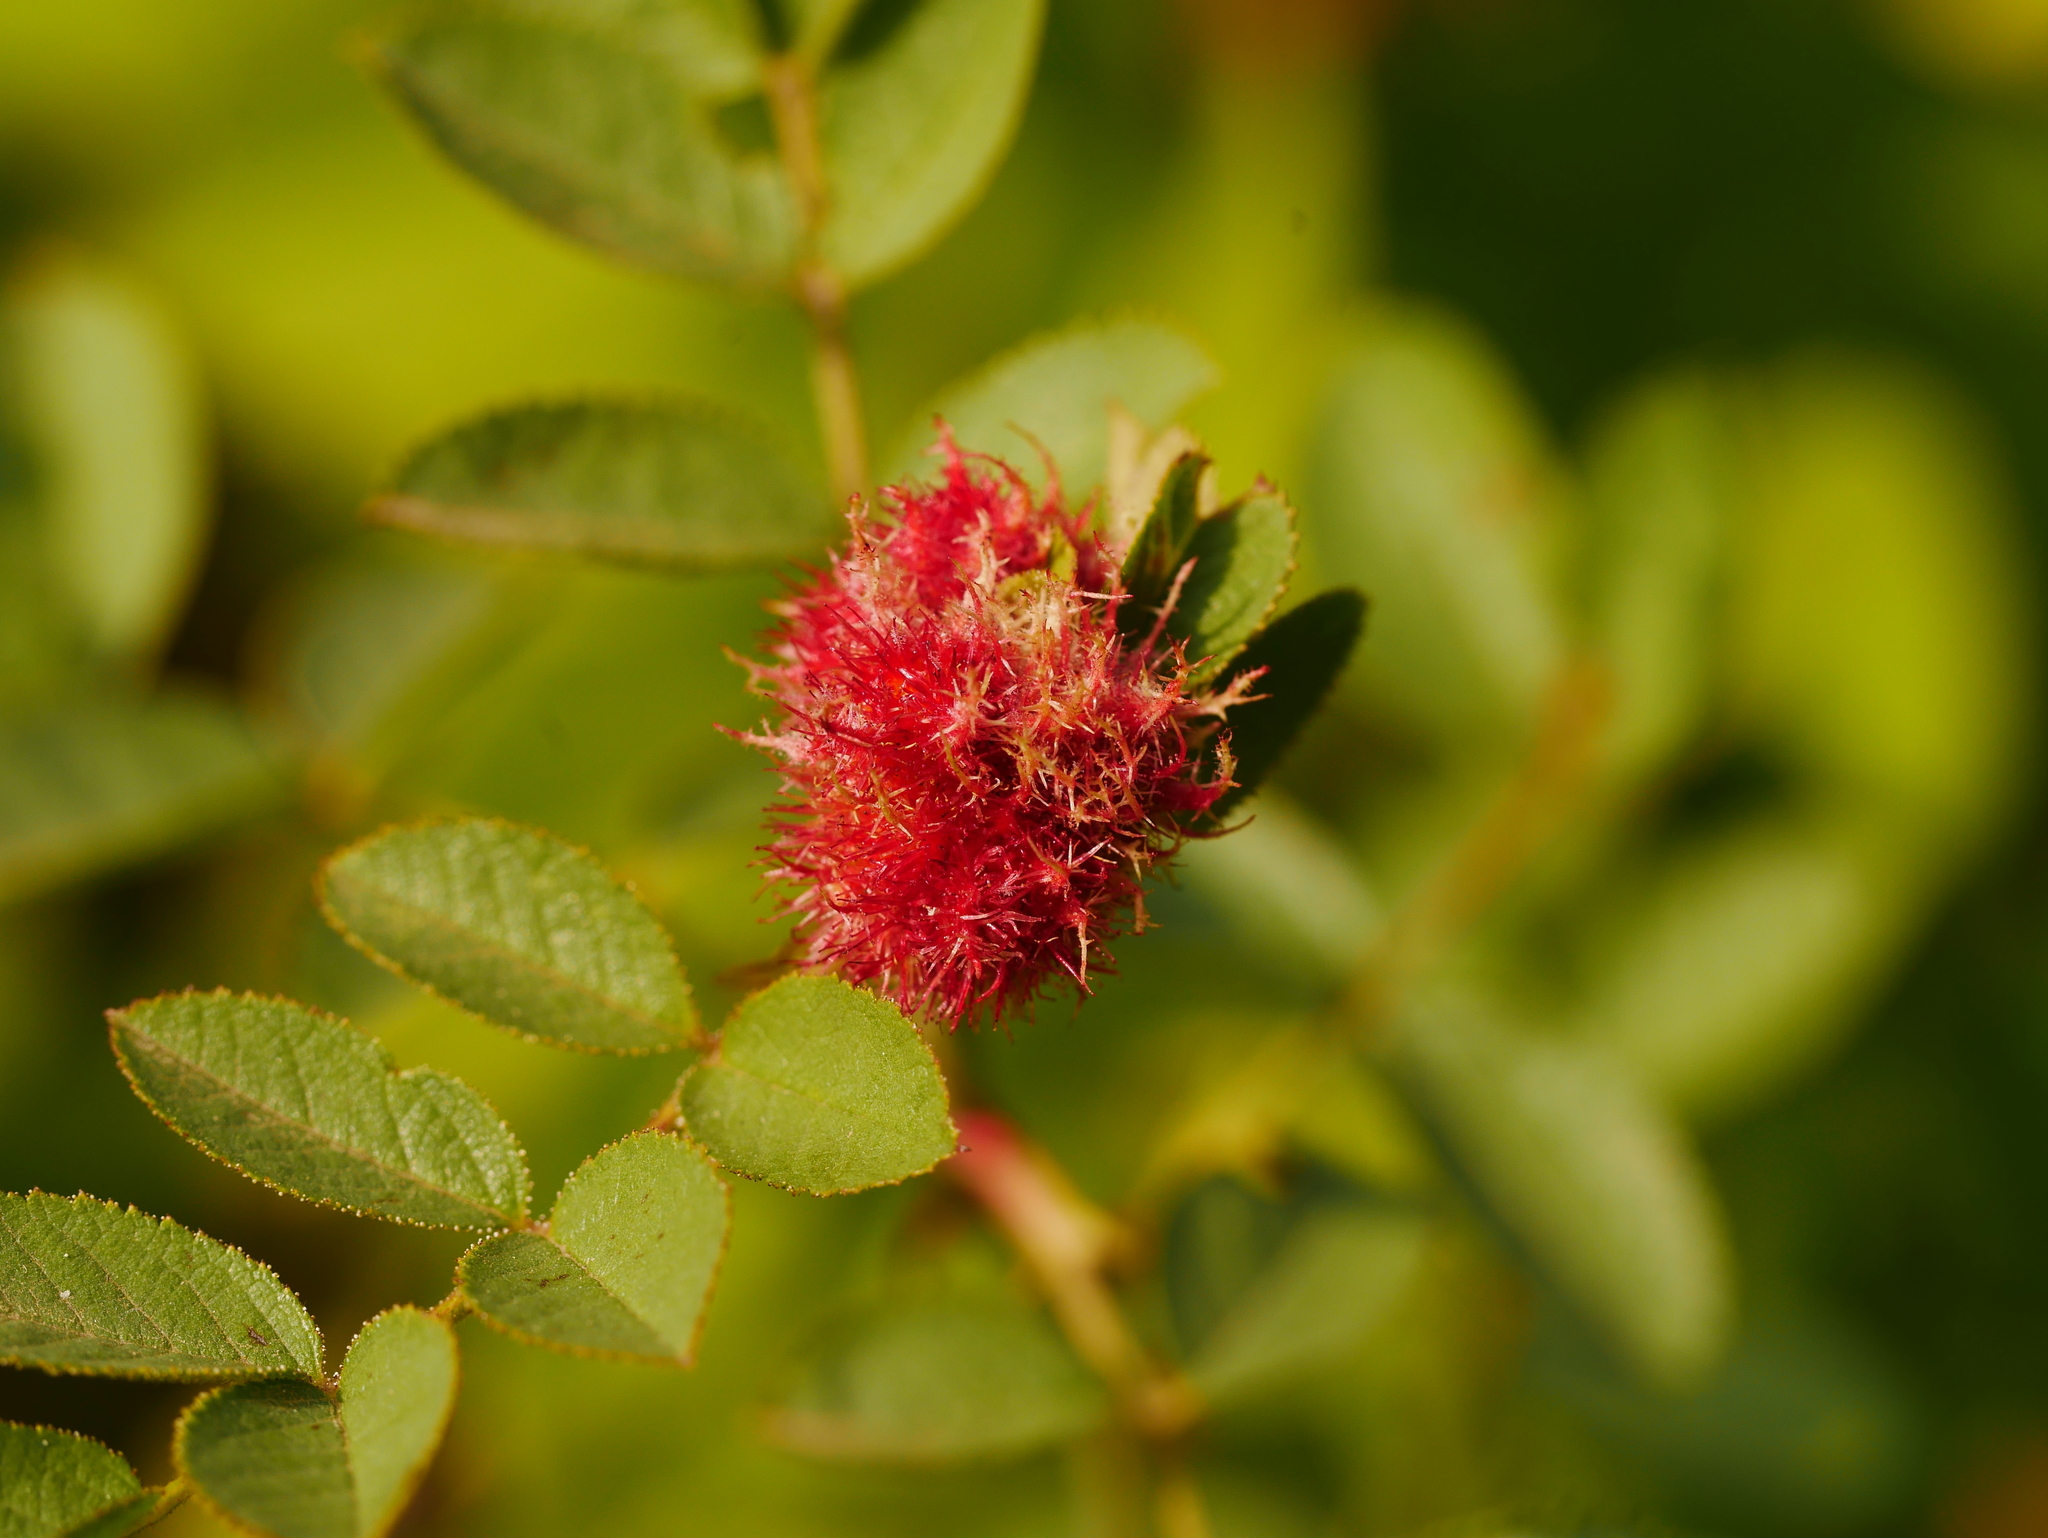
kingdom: Animalia
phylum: Arthropoda
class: Insecta
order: Hymenoptera
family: Cynipidae
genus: Diplolepis
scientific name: Diplolepis rosae
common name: Bedeguar gall
